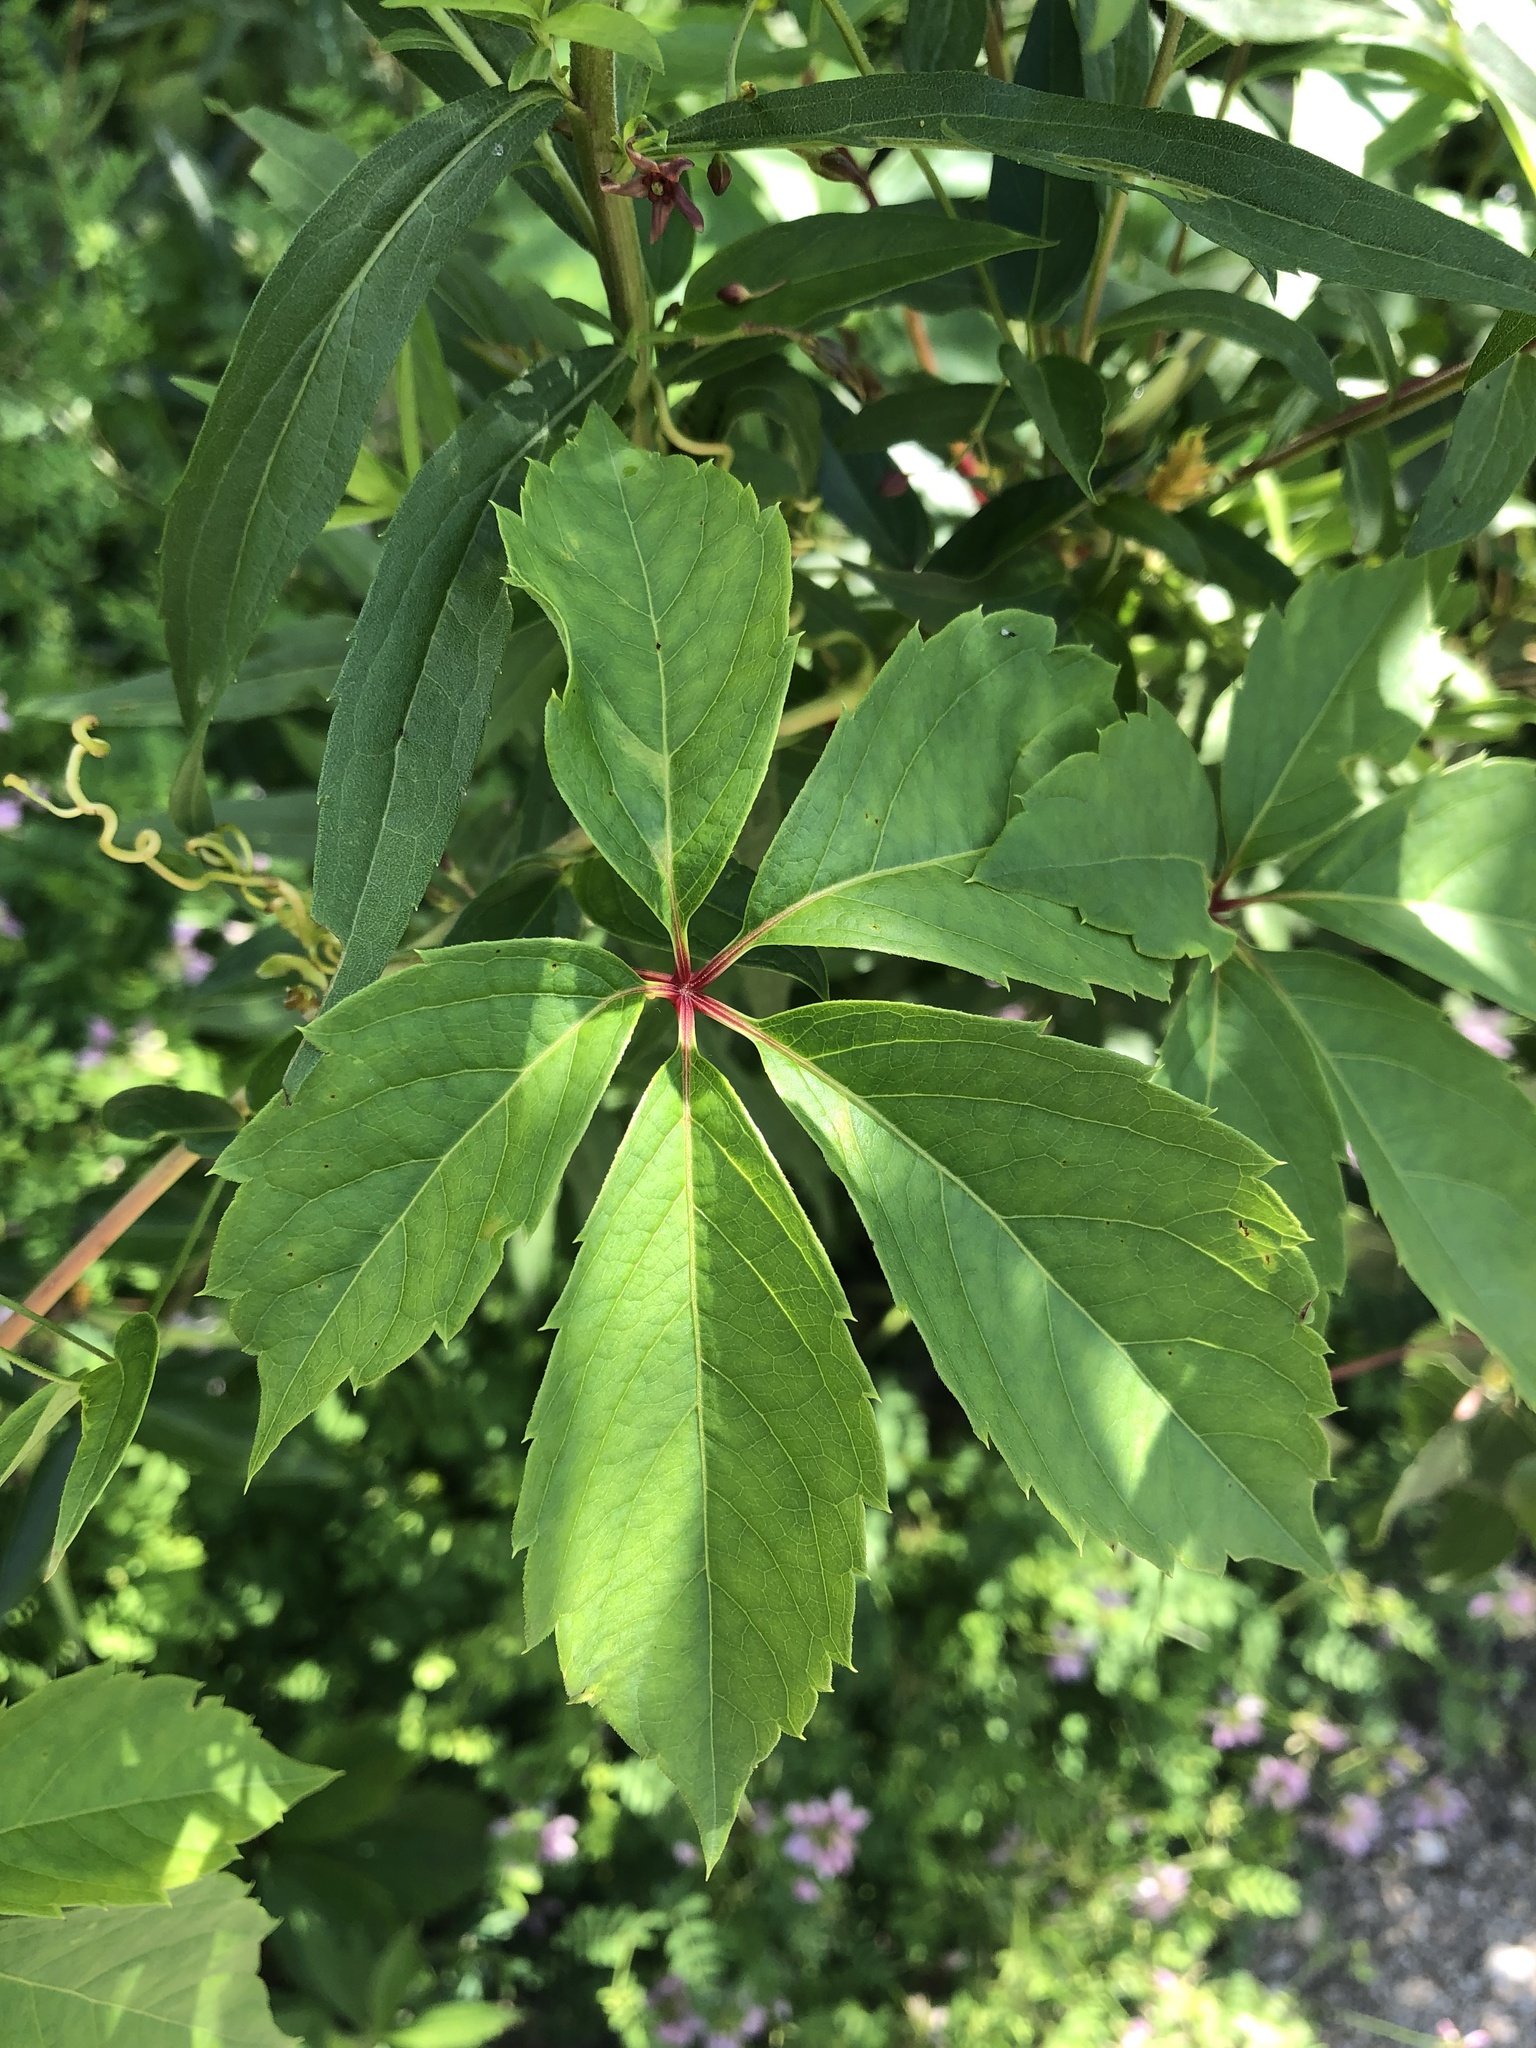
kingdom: Plantae
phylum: Tracheophyta
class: Magnoliopsida
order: Vitales
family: Vitaceae
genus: Parthenocissus
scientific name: Parthenocissus inserta
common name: False virginia-creeper
